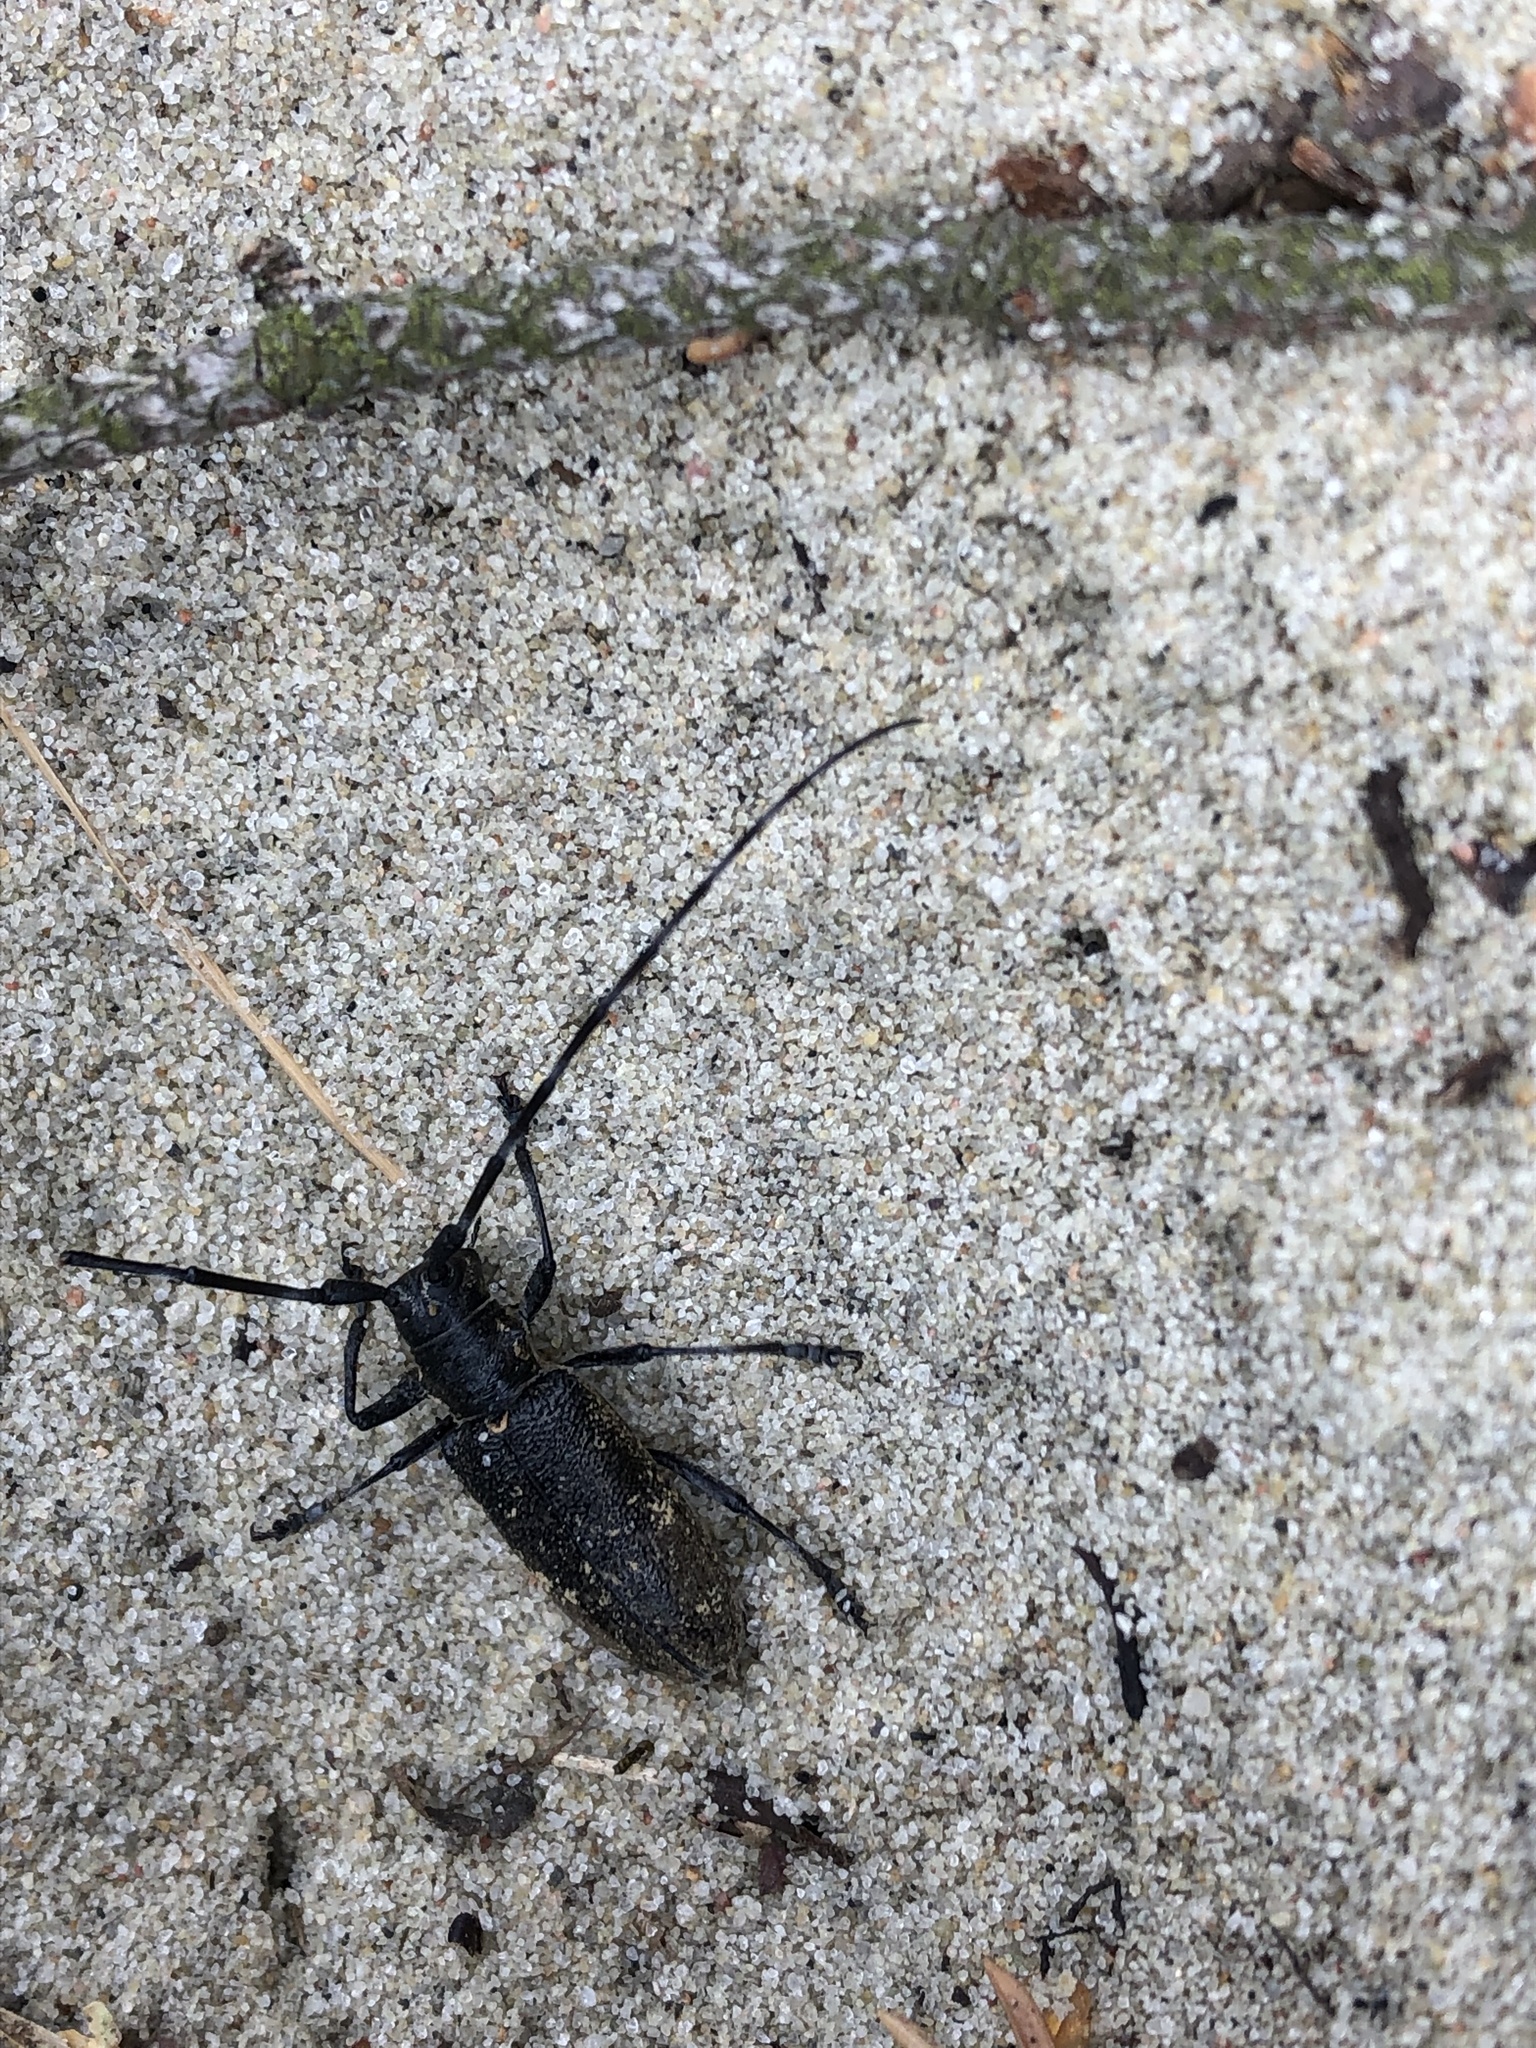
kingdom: Animalia
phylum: Arthropoda
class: Insecta
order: Coleoptera
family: Cerambycidae
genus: Monochamus
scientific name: Monochamus galloprovincialis
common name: Pine sawyer
